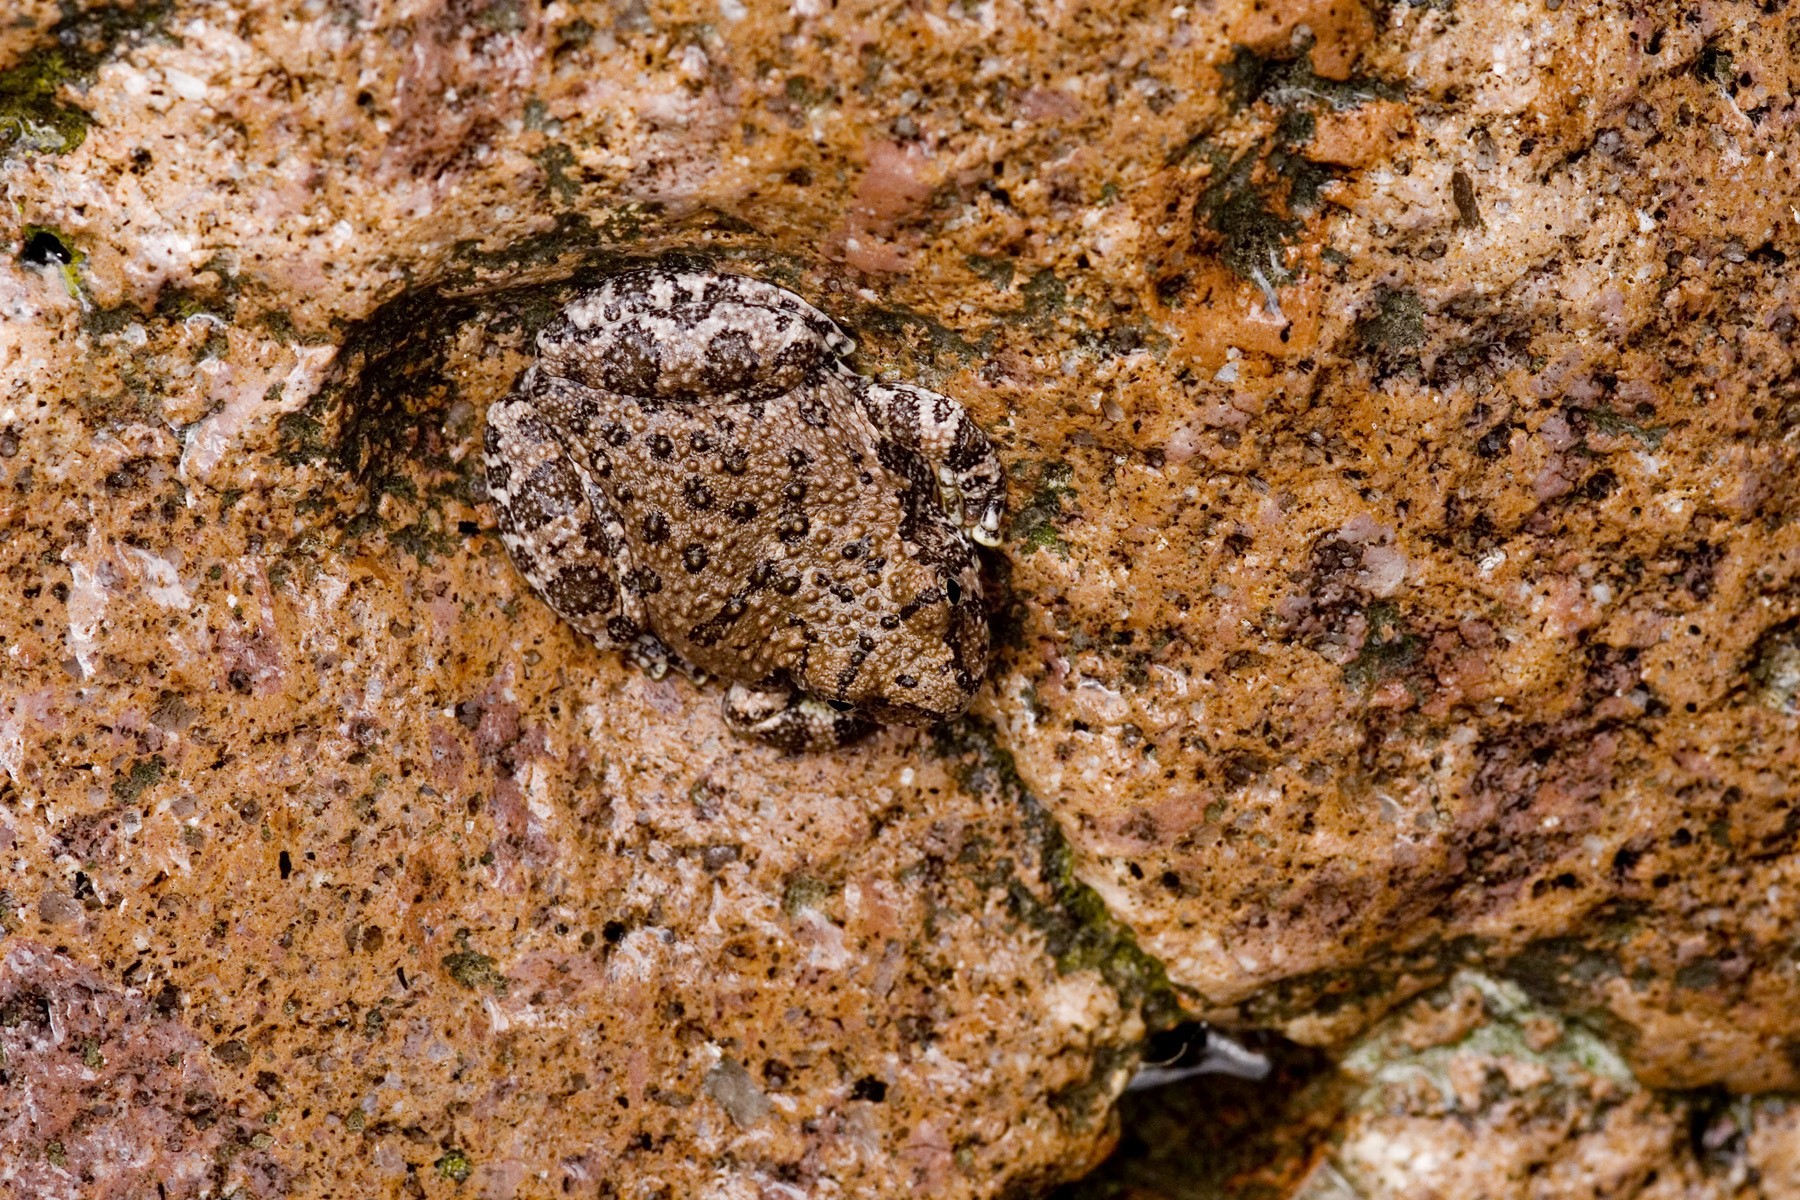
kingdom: Animalia
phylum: Chordata
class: Amphibia
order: Anura
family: Hylidae
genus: Dryophytes
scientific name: Dryophytes arenicolor
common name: Canyon treefrog
